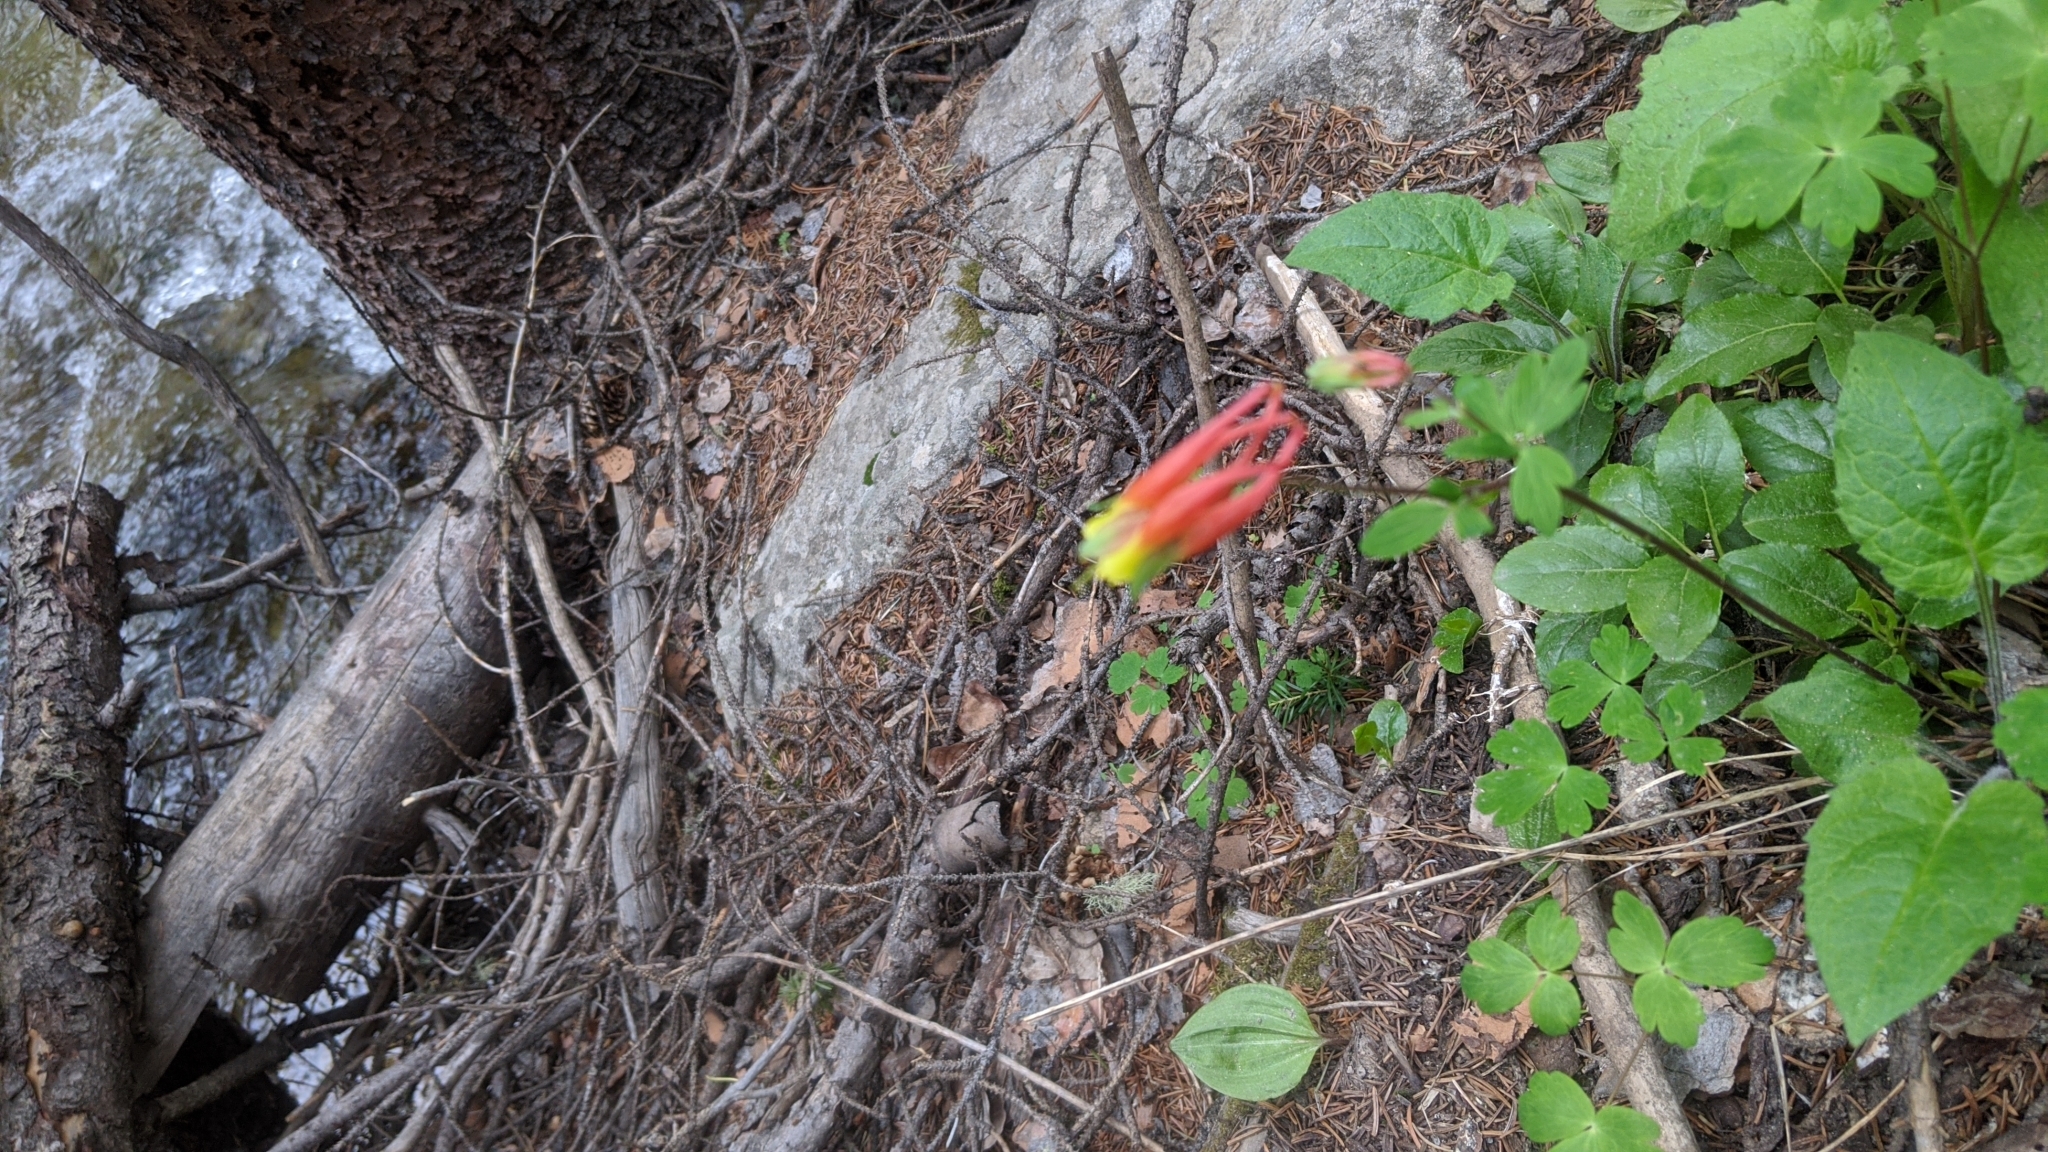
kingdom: Plantae
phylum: Tracheophyta
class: Magnoliopsida
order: Ranunculales
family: Ranunculaceae
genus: Aquilegia
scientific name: Aquilegia elegantula
